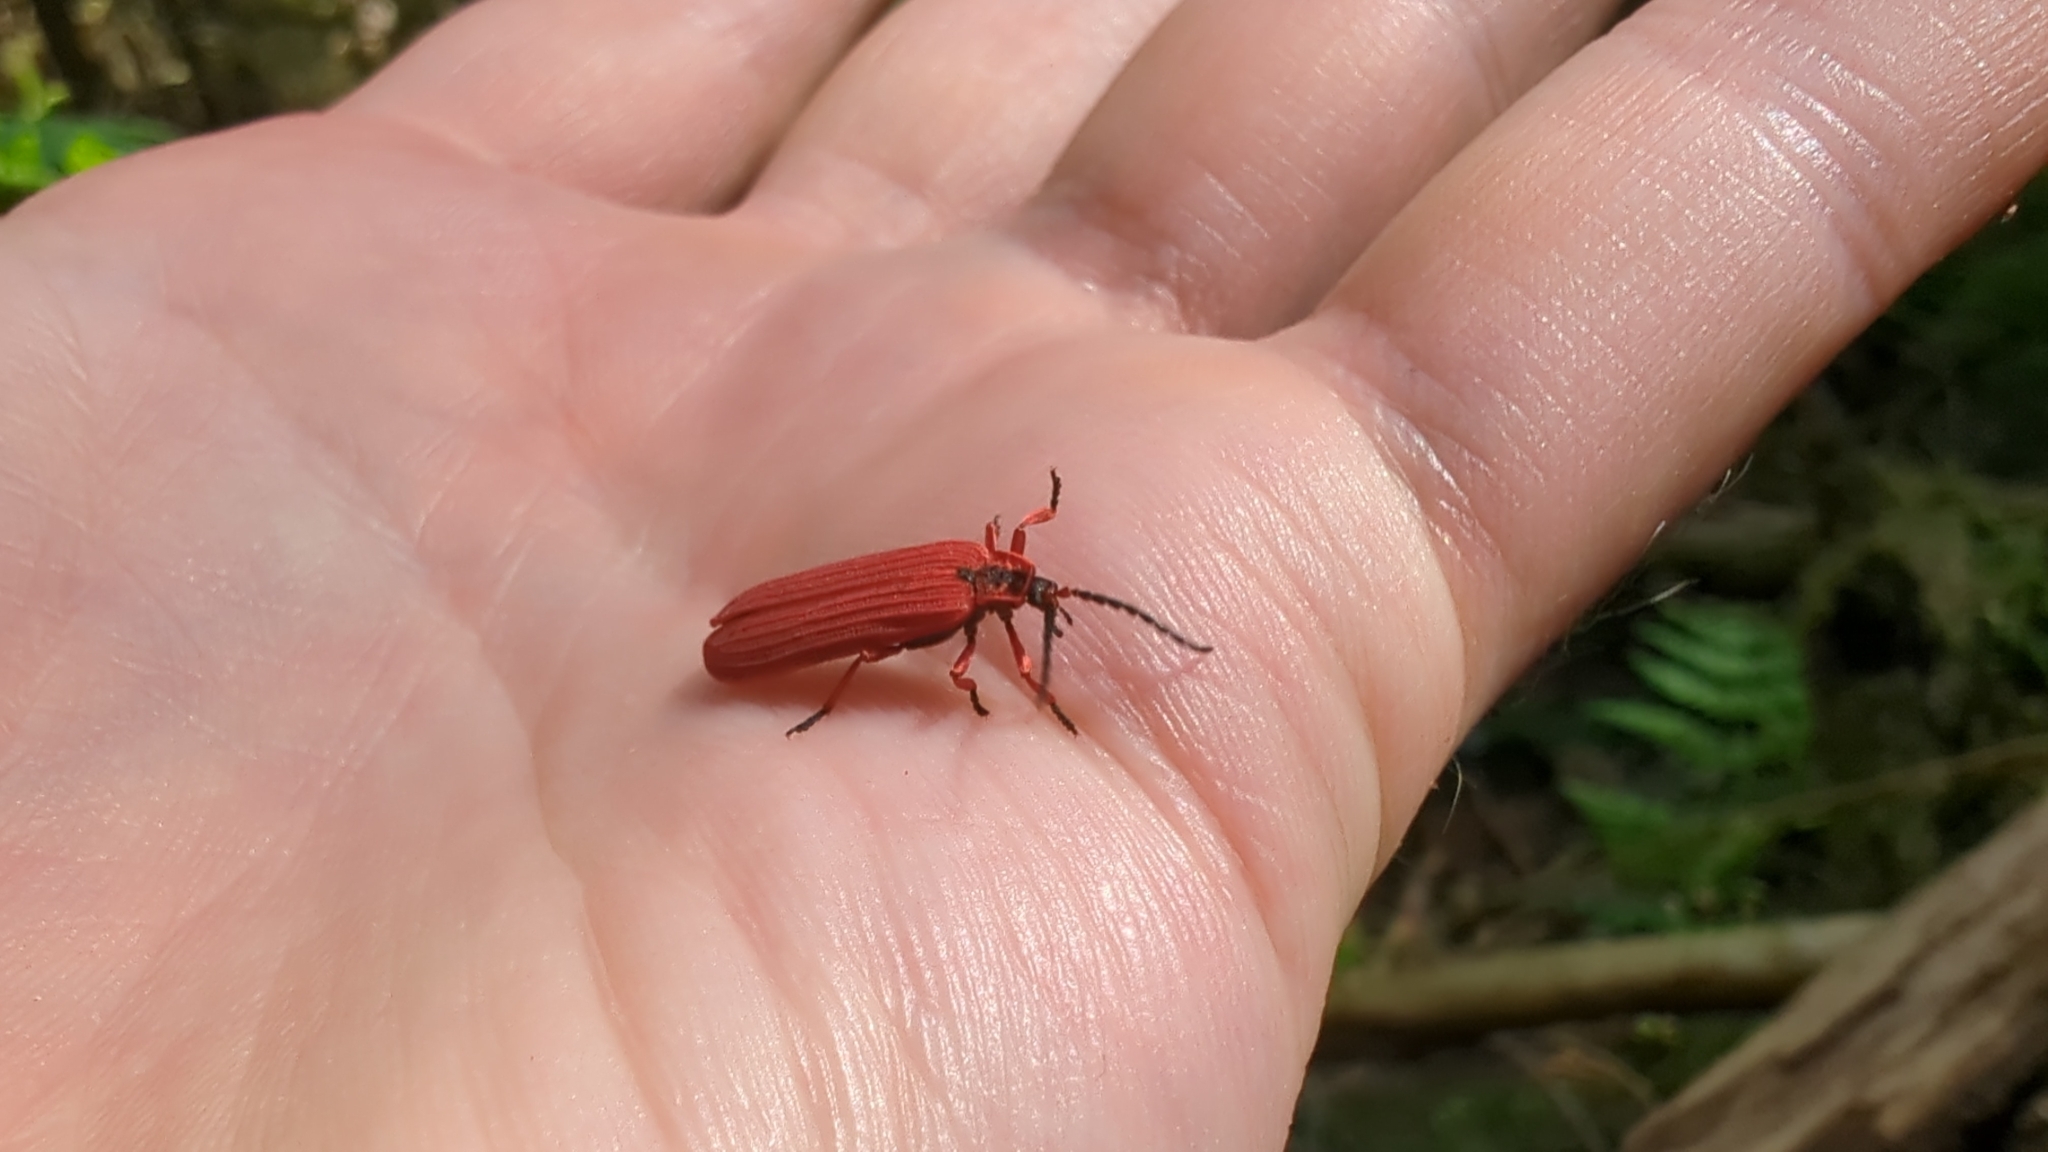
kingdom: Animalia
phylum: Arthropoda
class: Insecta
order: Coleoptera
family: Lycidae
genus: Dictyoptera
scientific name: Dictyoptera simplicipes
